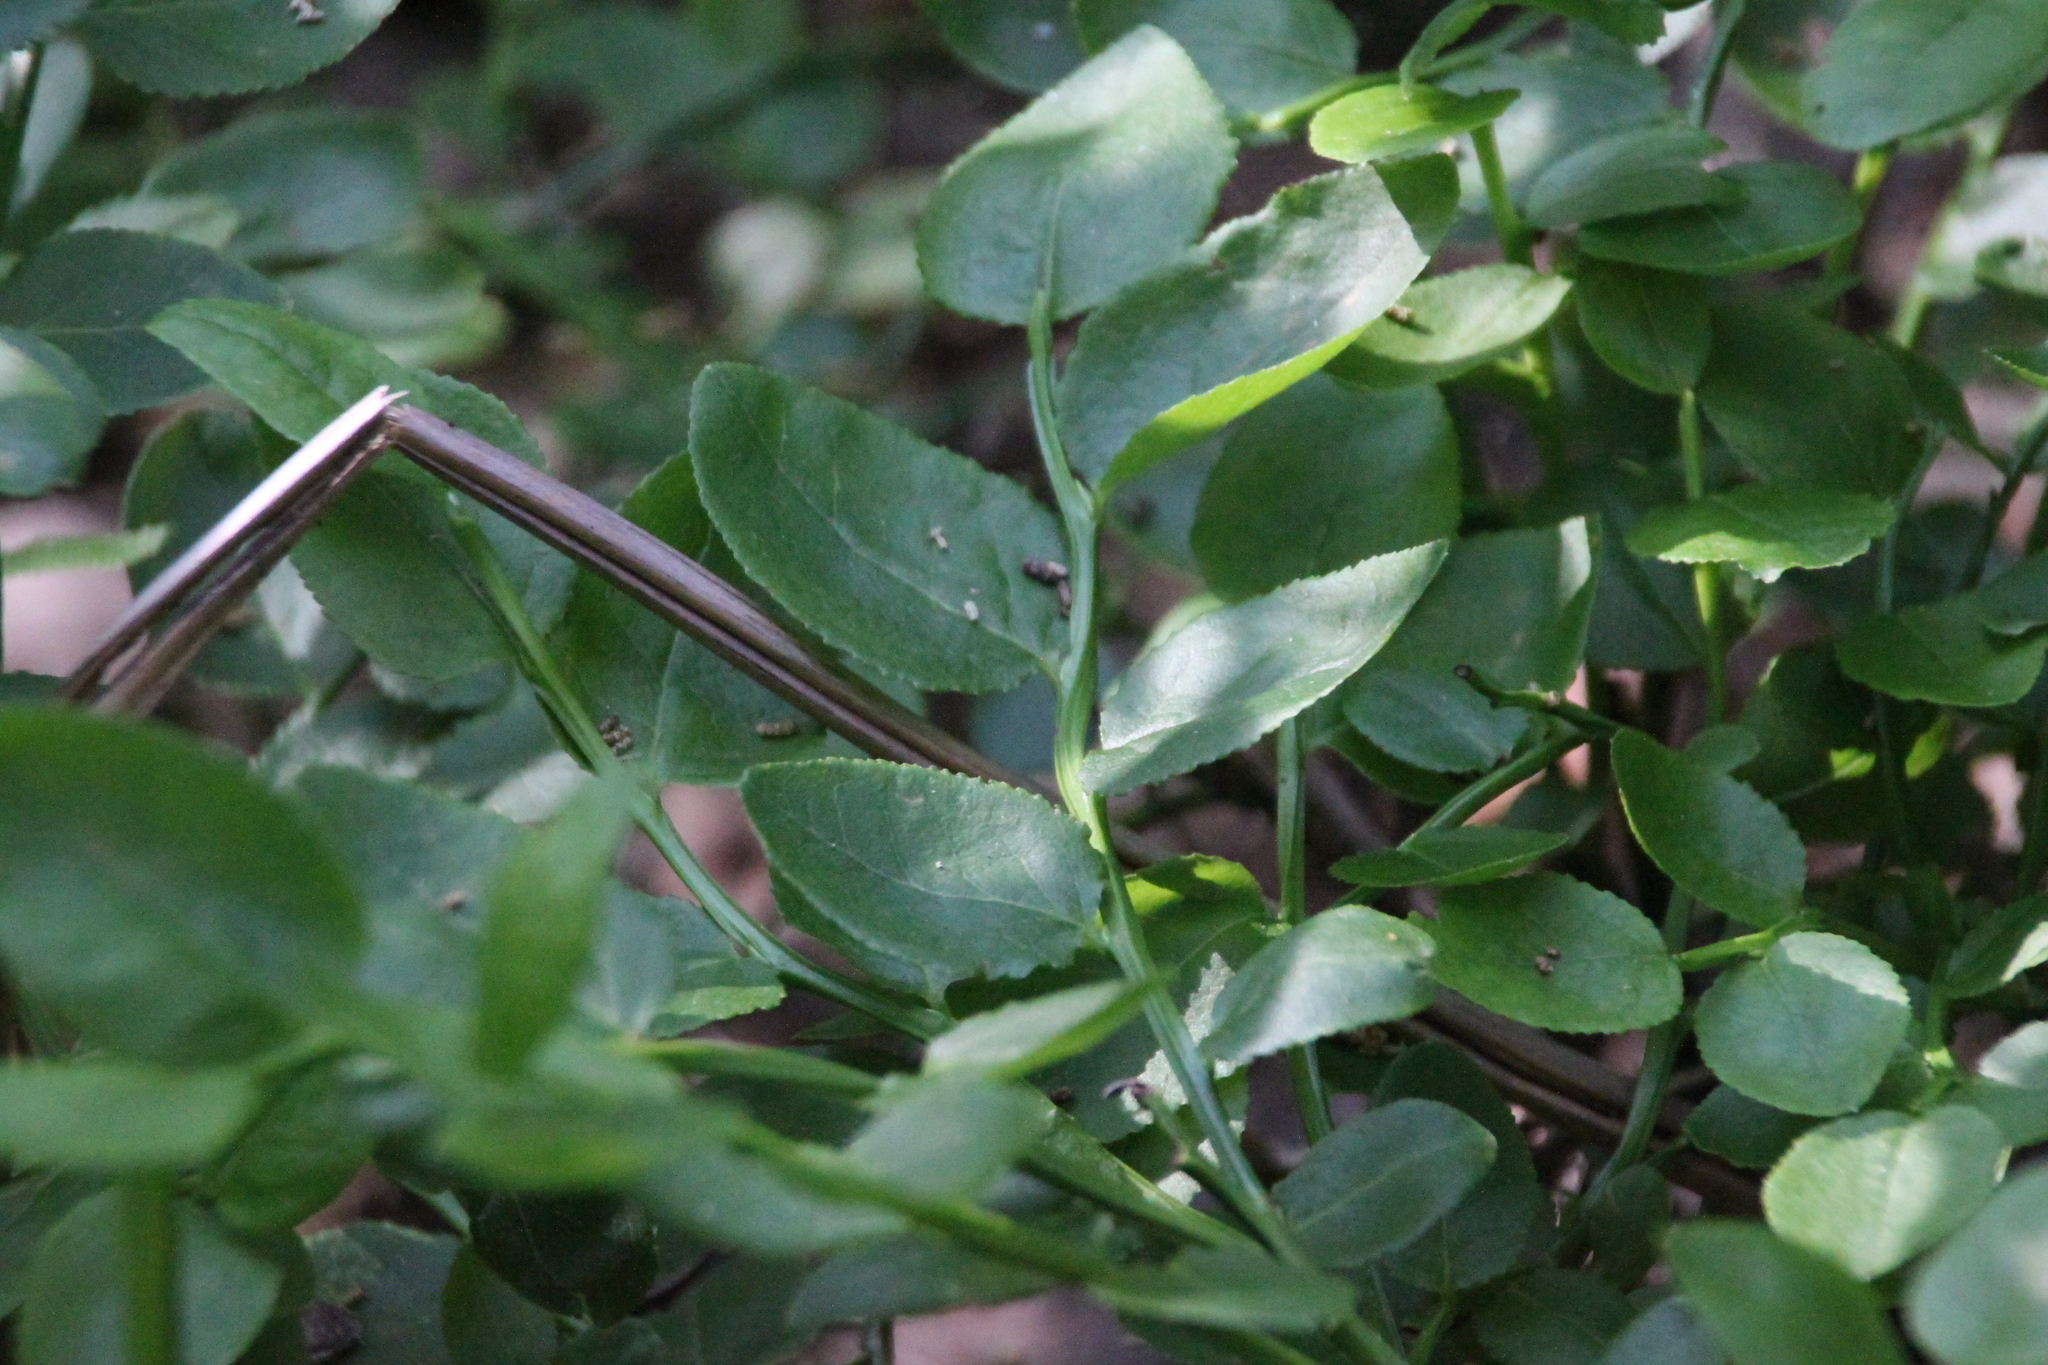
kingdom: Plantae
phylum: Tracheophyta
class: Magnoliopsida
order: Ericales
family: Ericaceae
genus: Vaccinium
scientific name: Vaccinium myrtillus
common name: Bilberry
